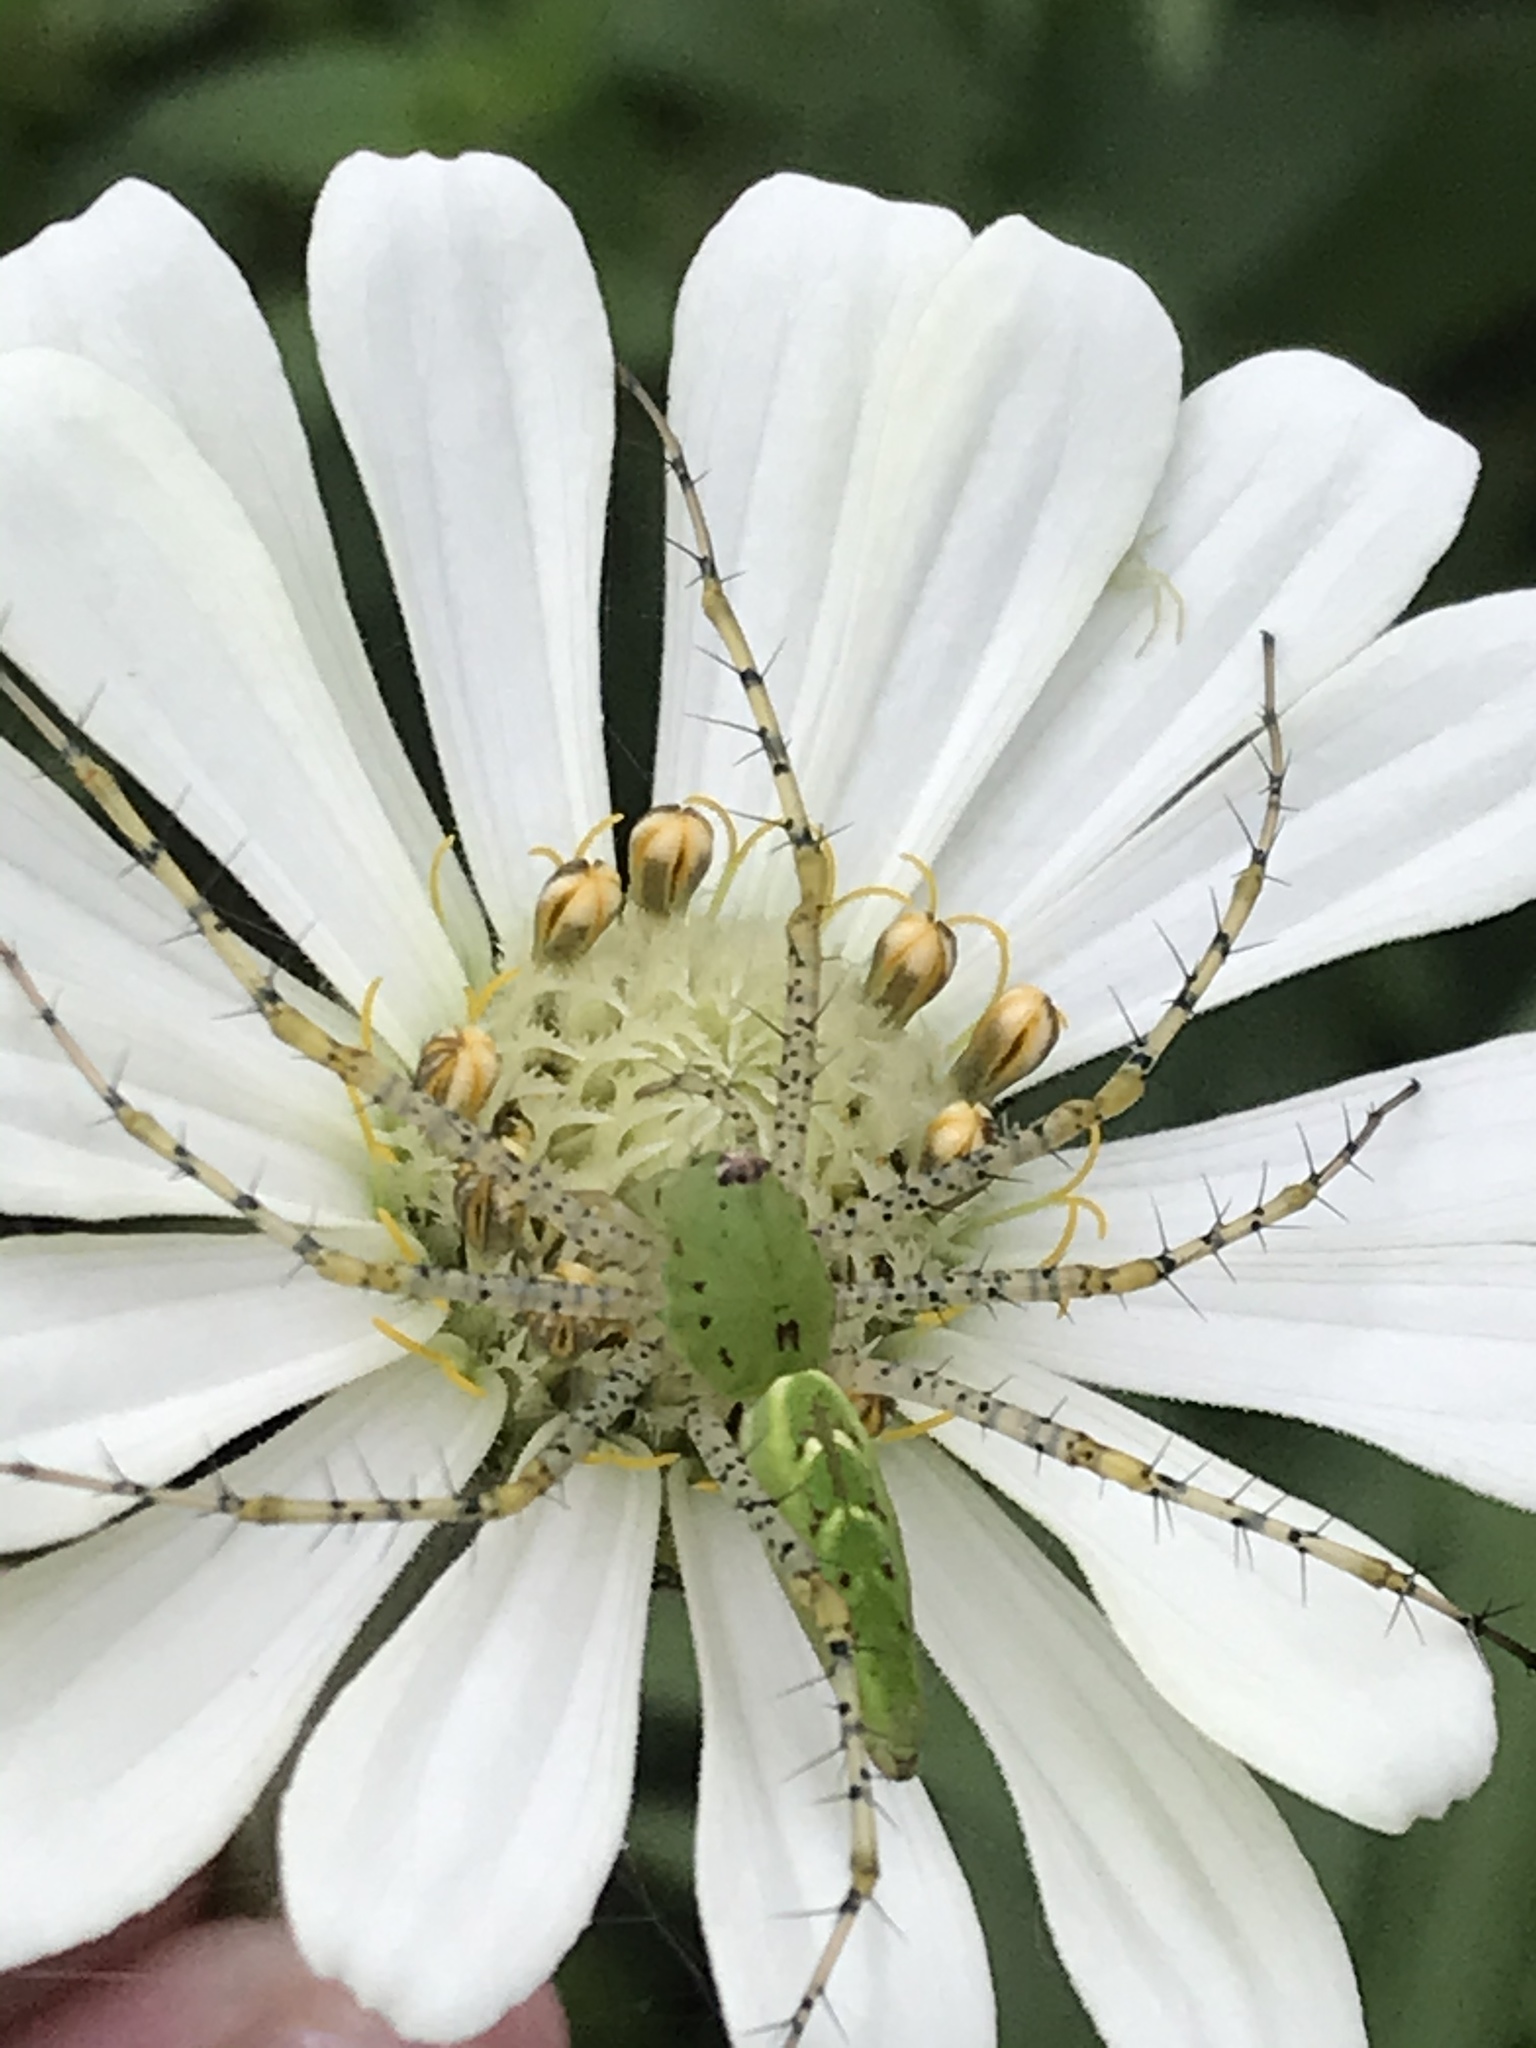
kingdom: Animalia
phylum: Arthropoda
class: Arachnida
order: Araneae
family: Oxyopidae
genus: Peucetia
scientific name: Peucetia viridans
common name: Lynx spiders
